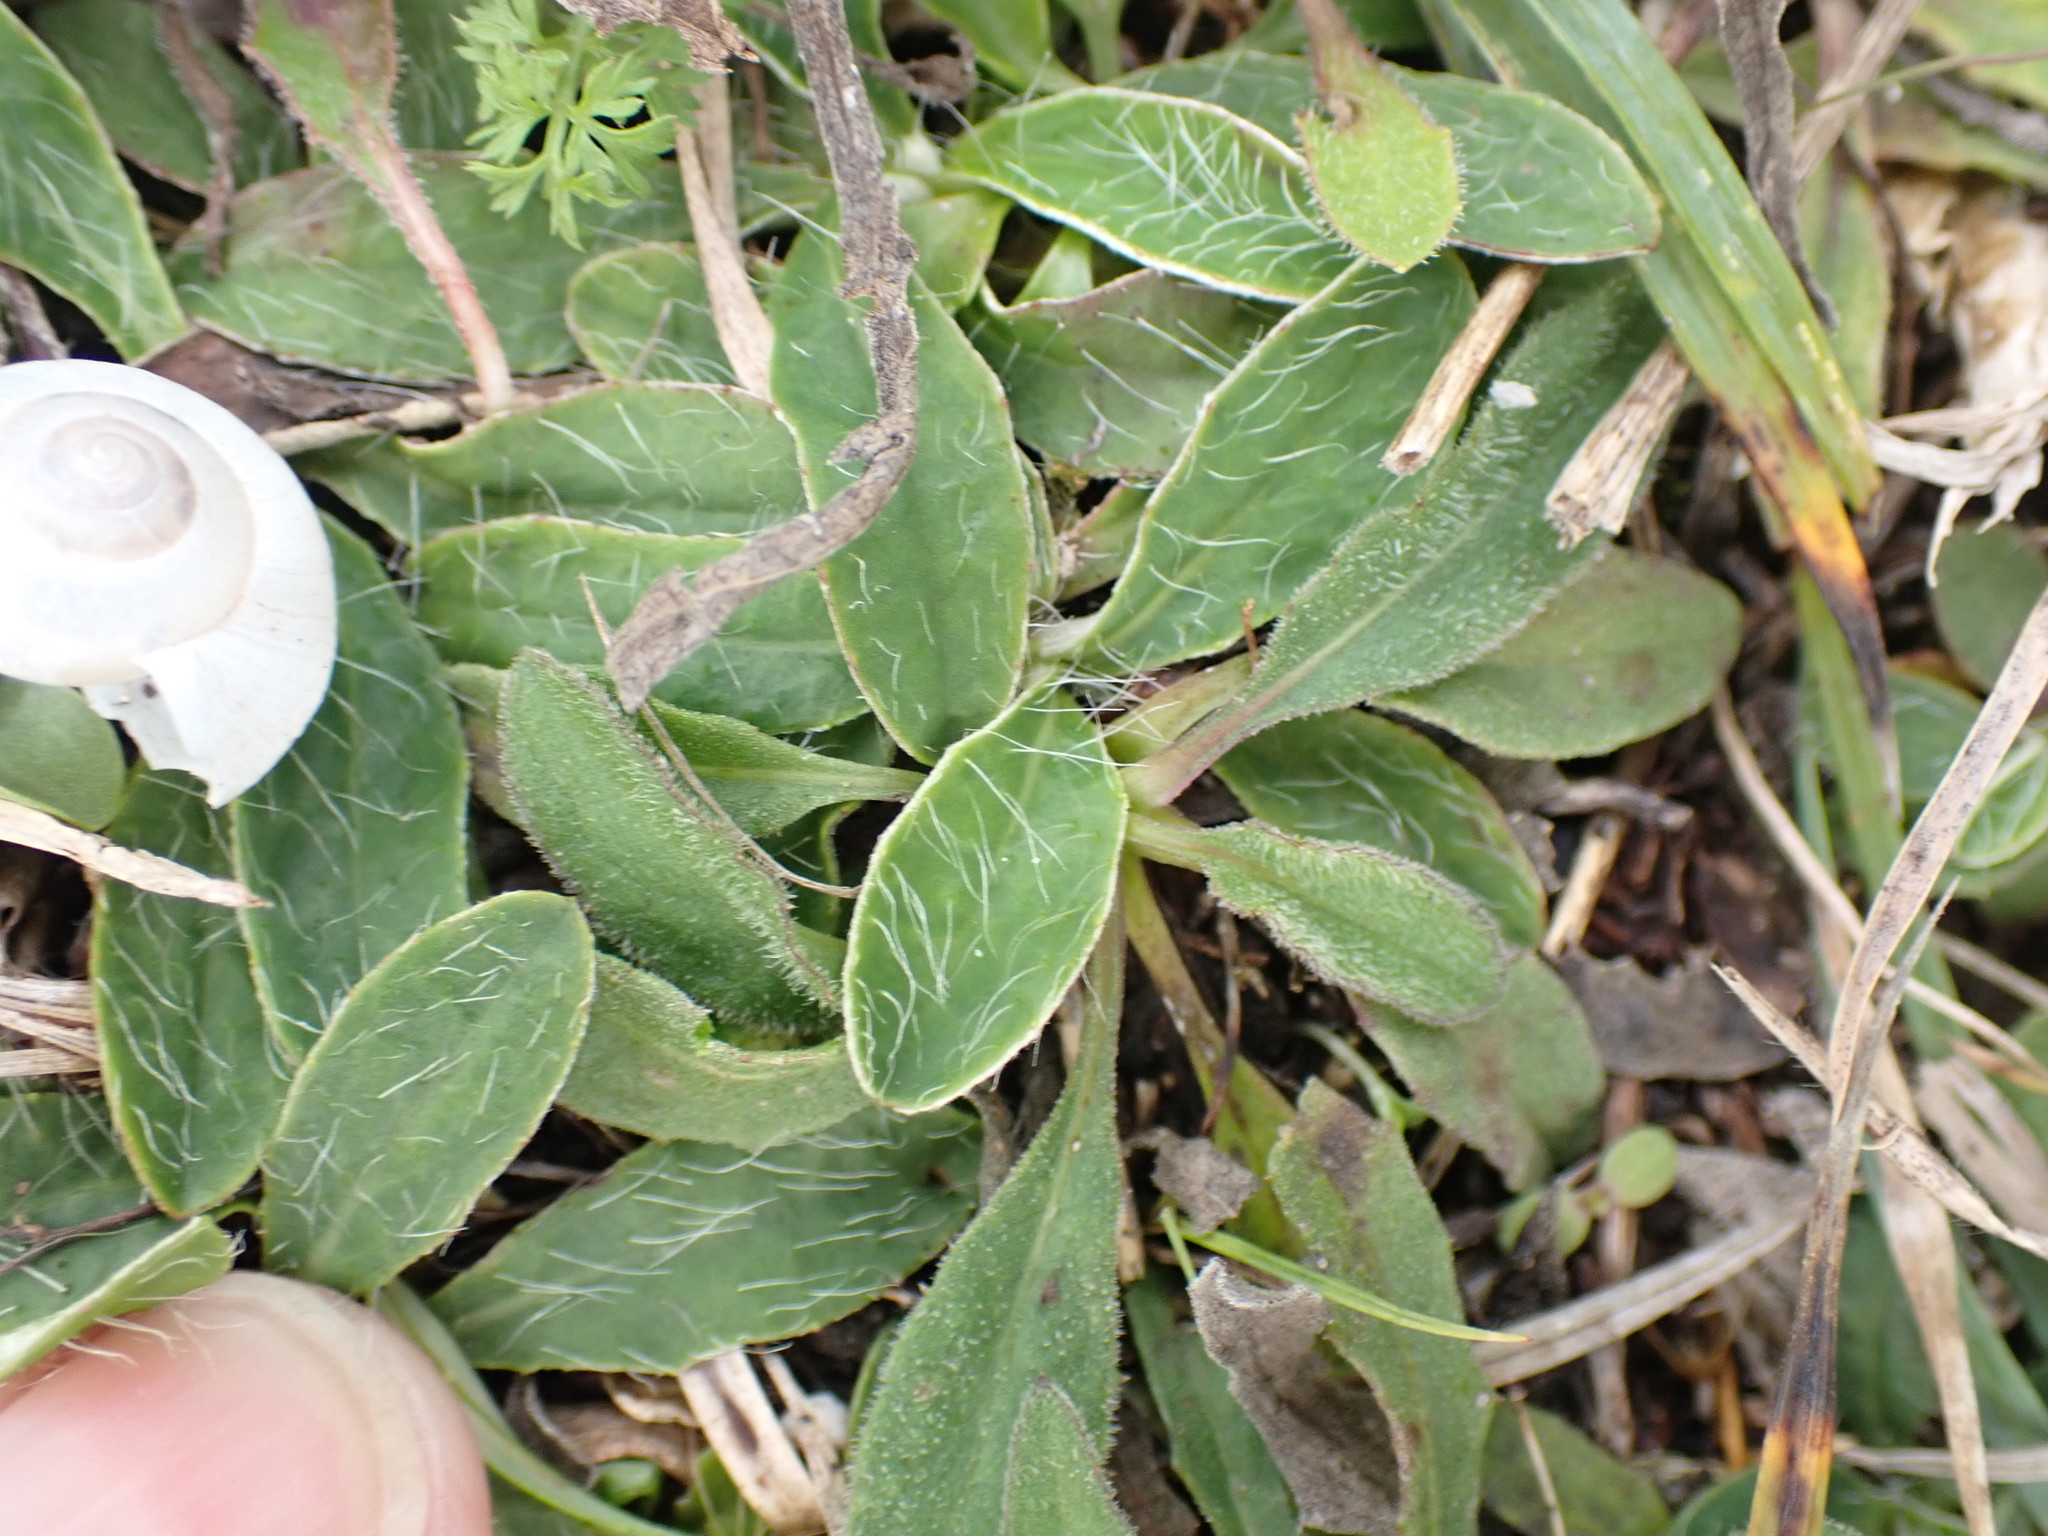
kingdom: Plantae
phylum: Tracheophyta
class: Magnoliopsida
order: Asterales
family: Asteraceae
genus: Pilosella
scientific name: Pilosella officinarum
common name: Mouse-ear hawkweed
